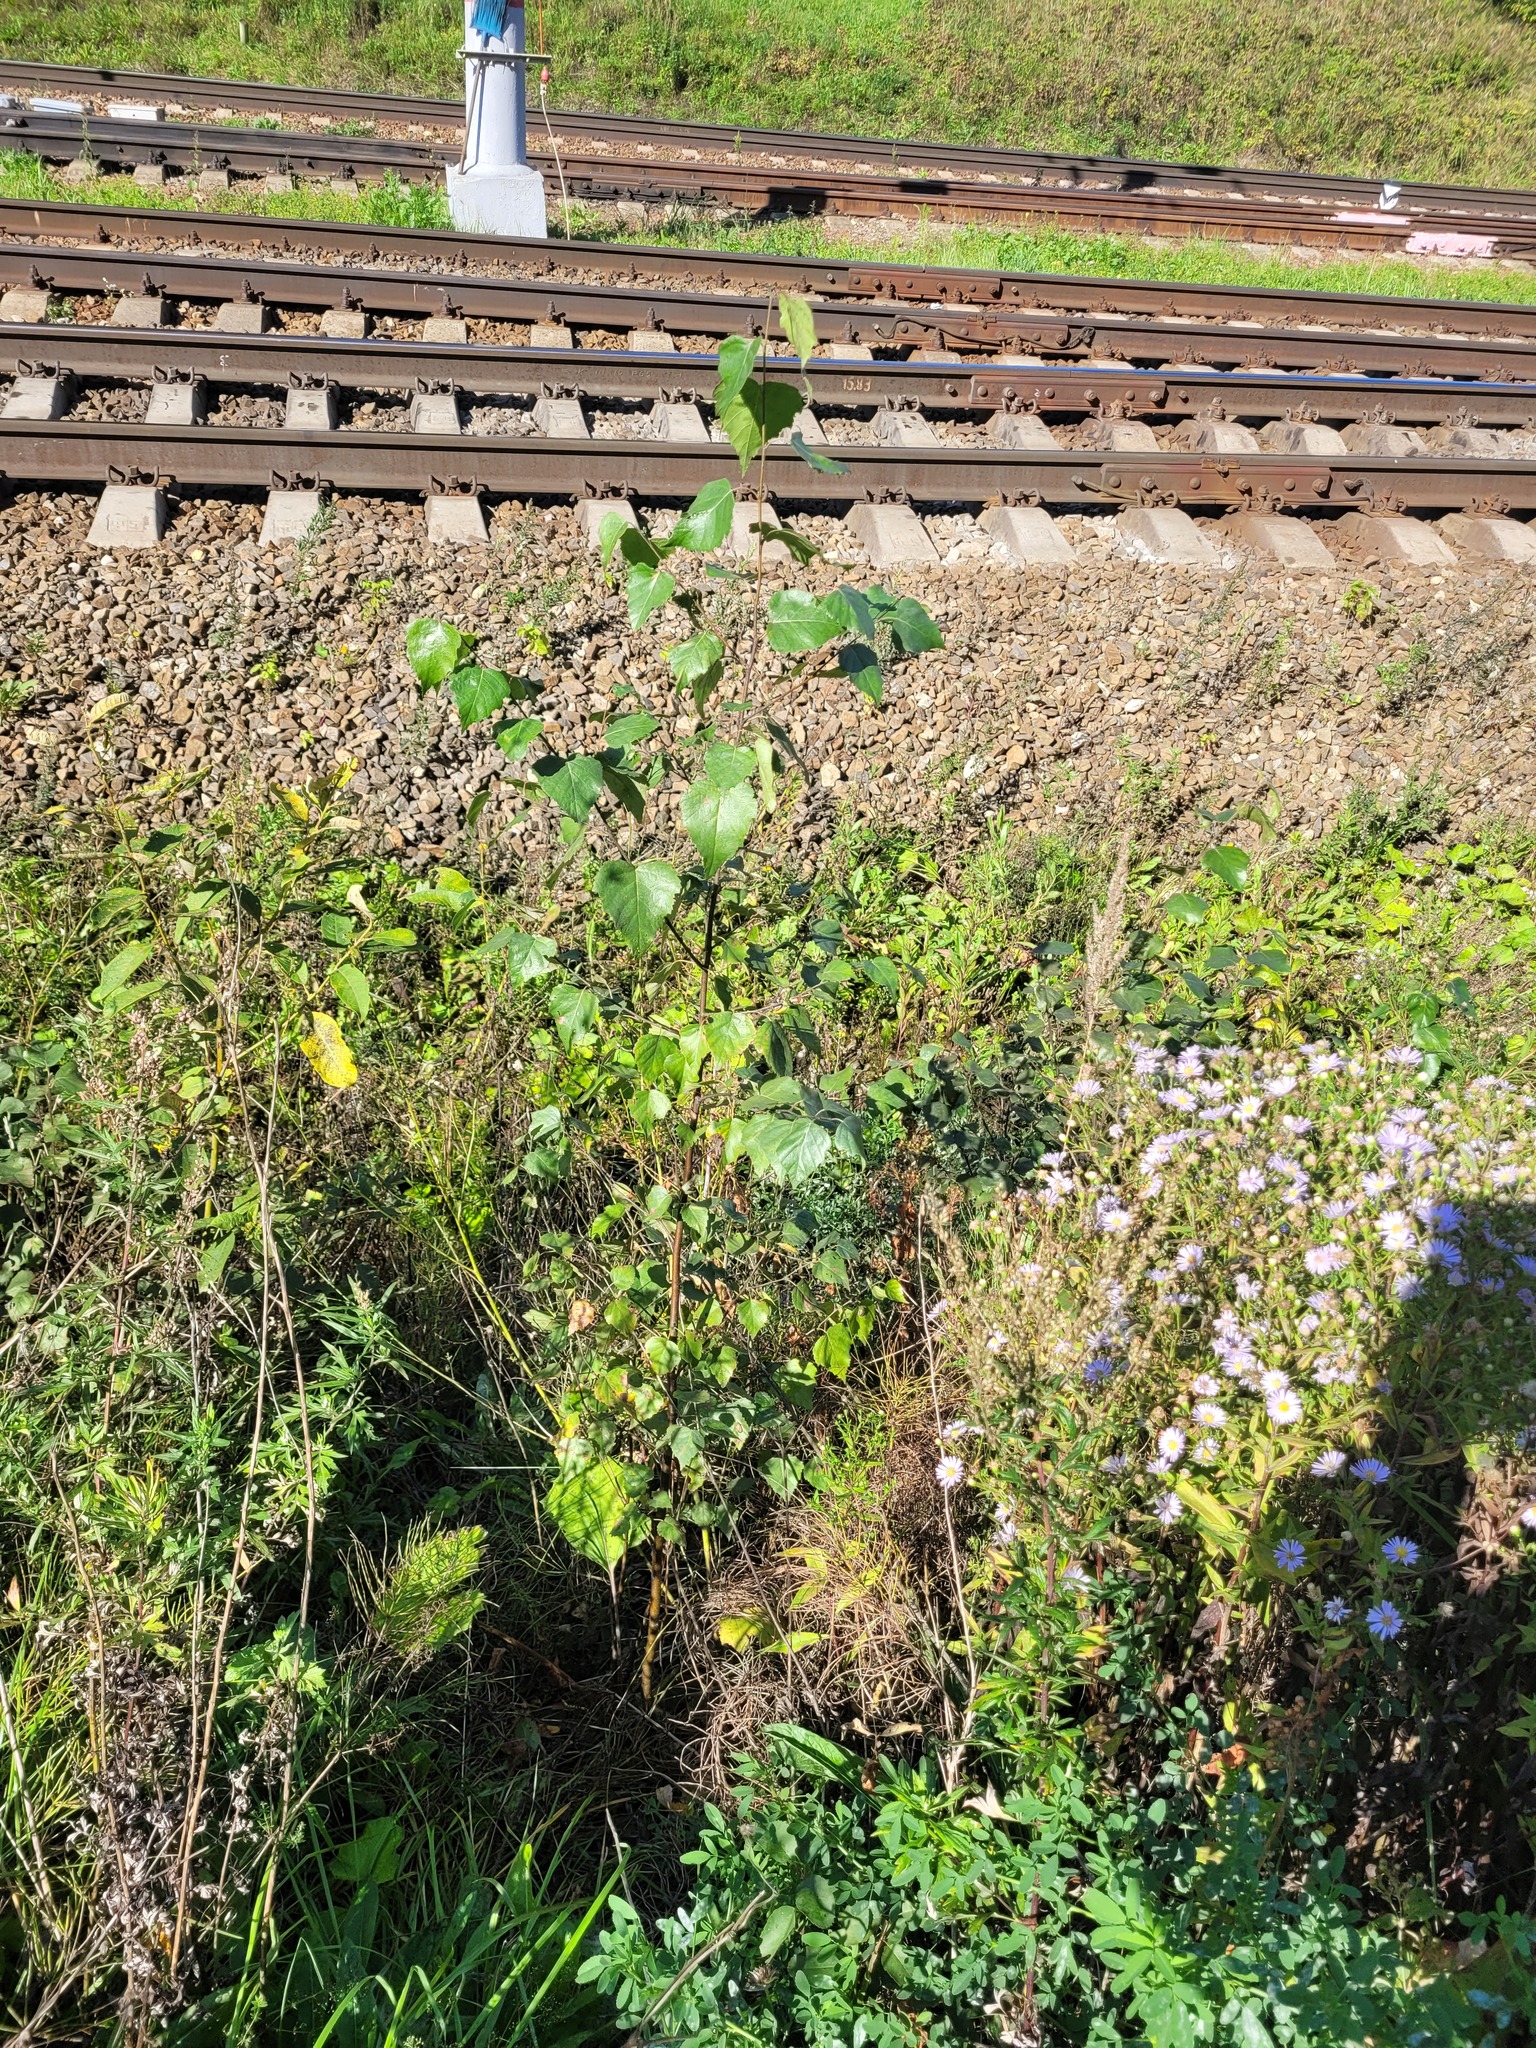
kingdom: Plantae
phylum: Tracheophyta
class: Magnoliopsida
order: Fagales
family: Betulaceae
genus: Betula
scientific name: Betula pendula
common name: Silver birch
